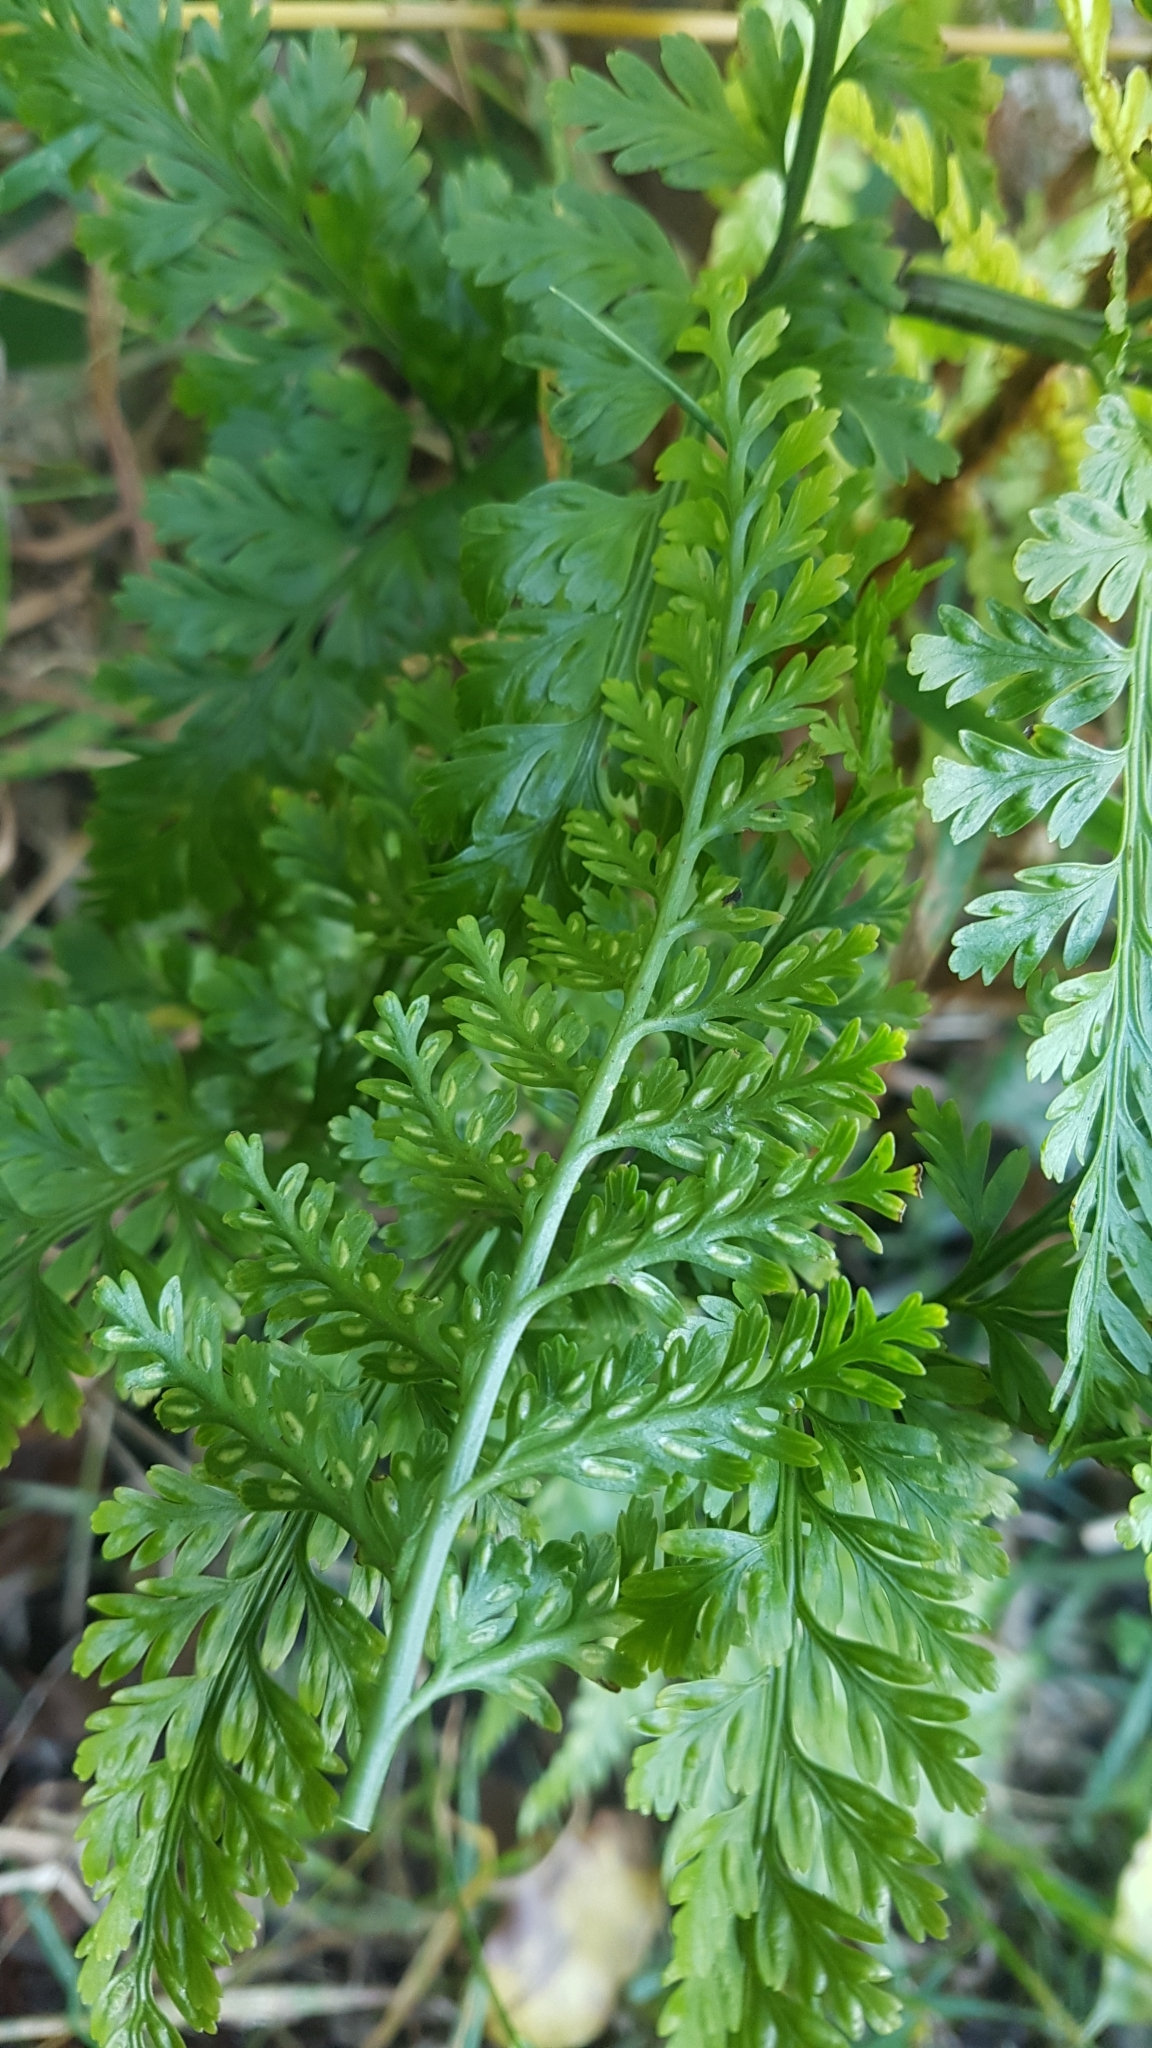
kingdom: Plantae
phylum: Tracheophyta
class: Polypodiopsida
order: Polypodiales
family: Aspleniaceae
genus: Asplenium
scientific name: Asplenium bulbiferum
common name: Mother fern
